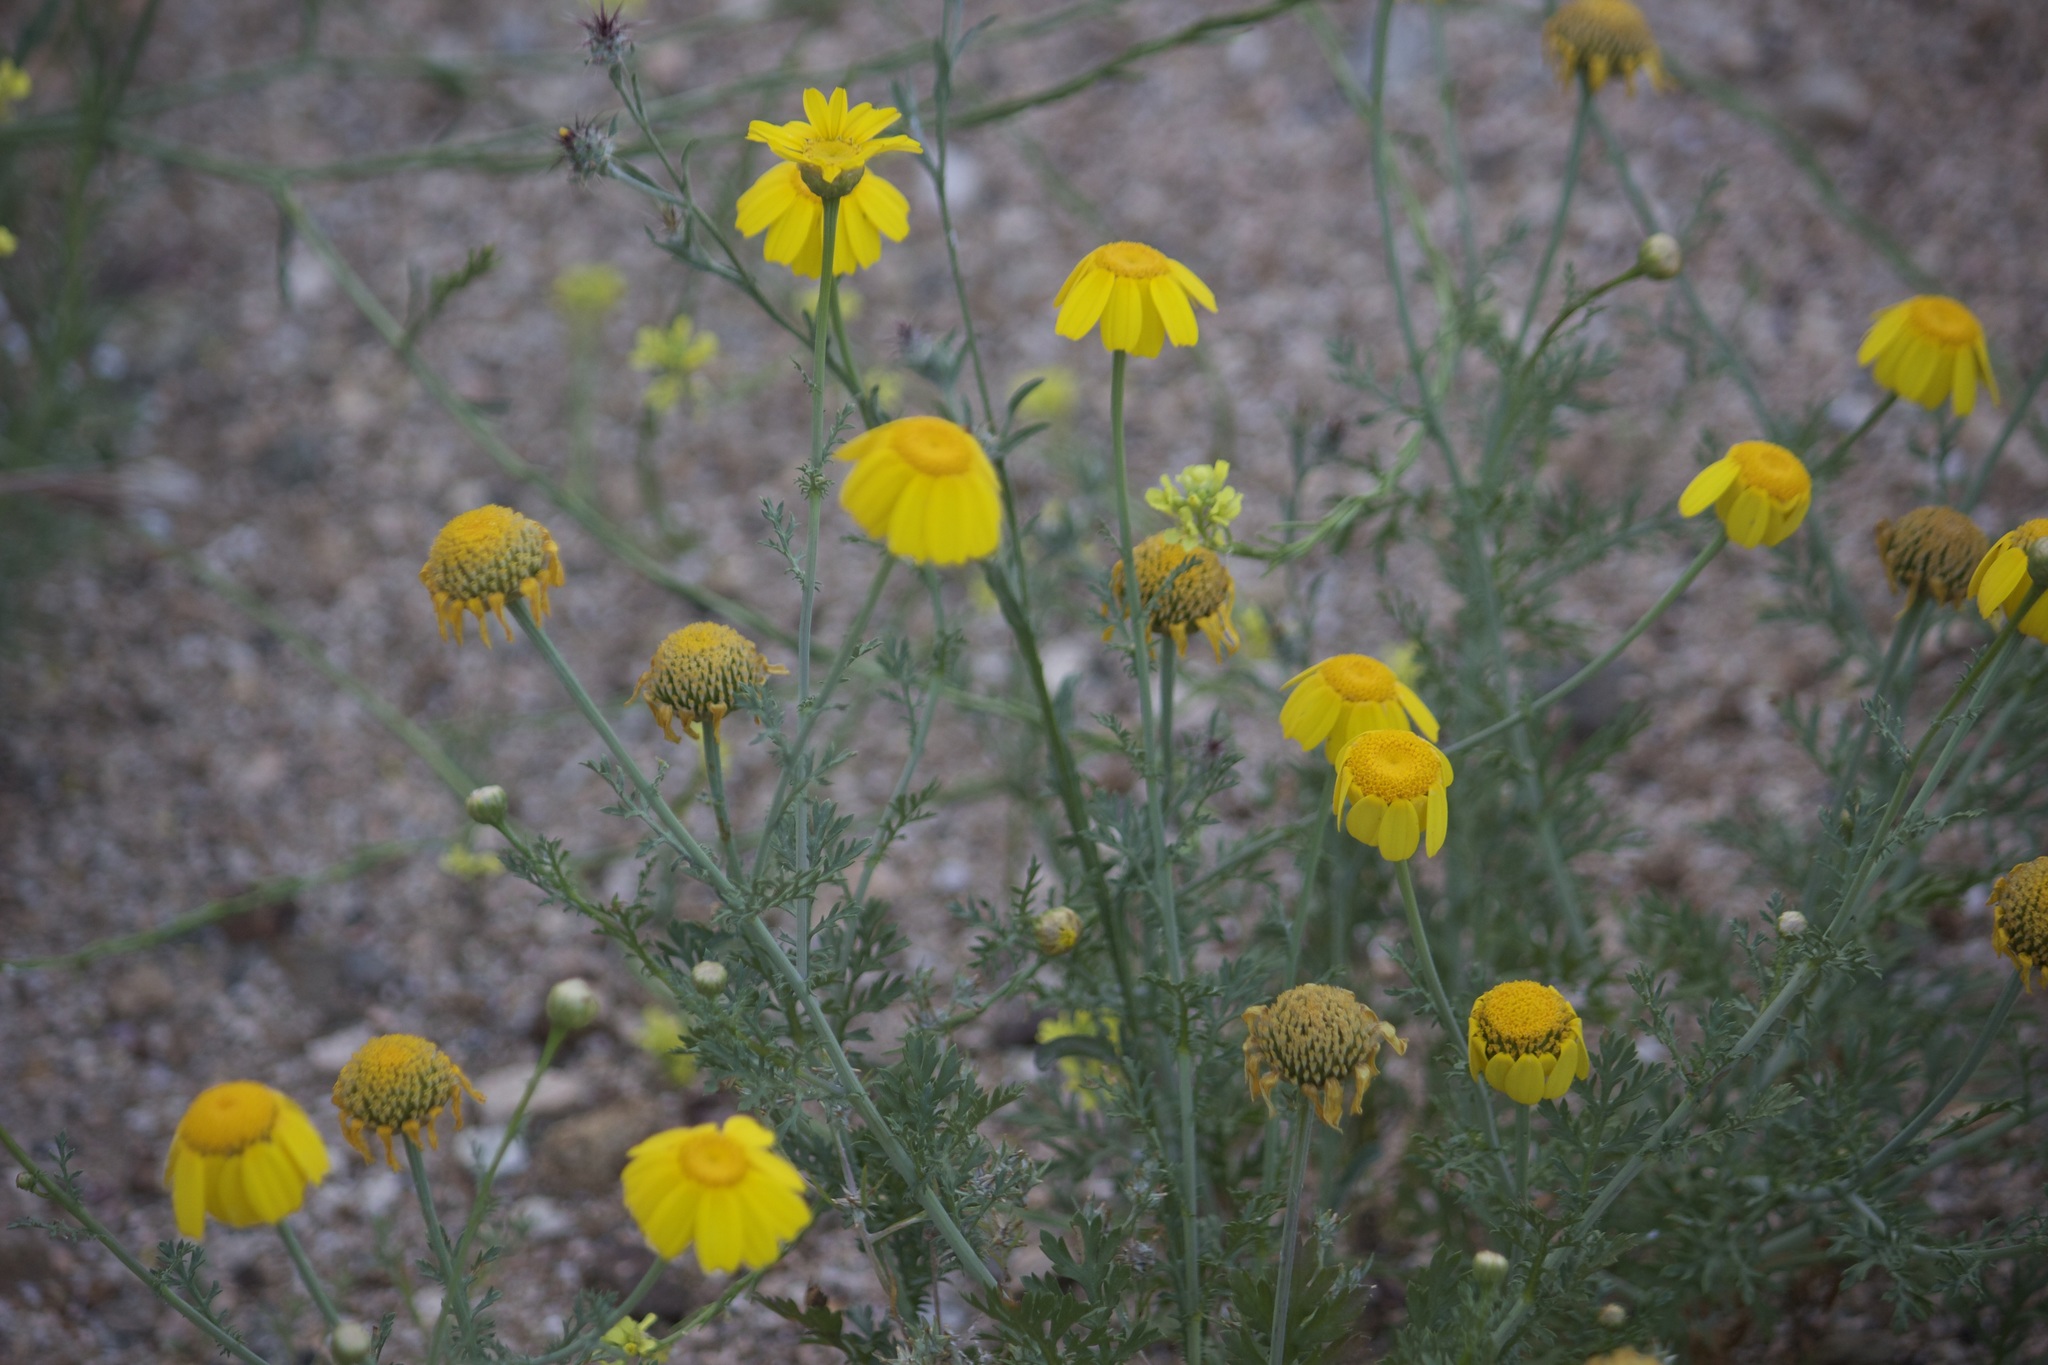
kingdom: Plantae
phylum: Tracheophyta
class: Magnoliopsida
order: Asterales
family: Asteraceae
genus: Glebionis
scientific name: Glebionis coronaria
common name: Crowndaisy
